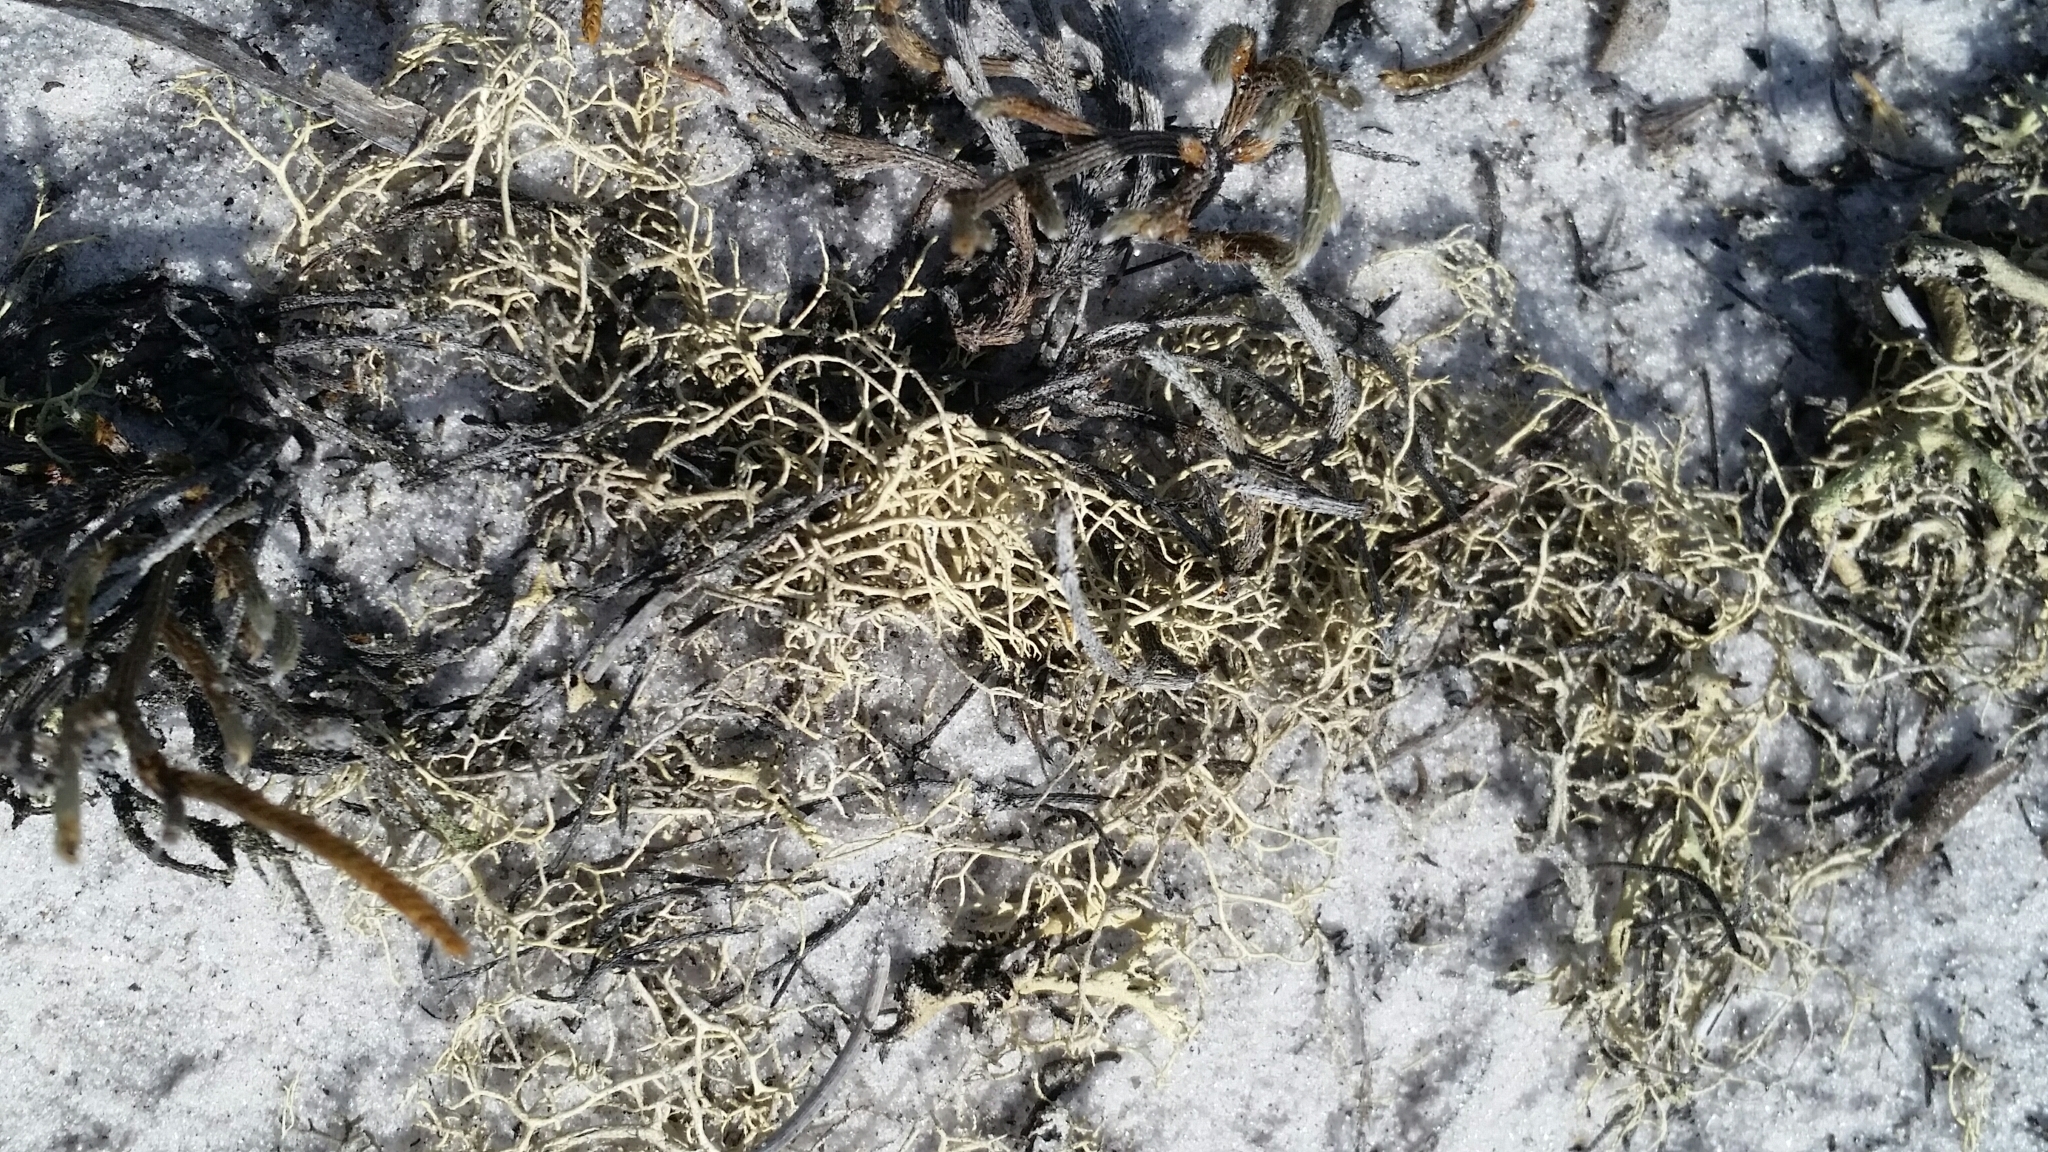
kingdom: Fungi
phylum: Ascomycota
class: Lecanoromycetes
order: Lecanorales
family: Cladoniaceae
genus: Cladonia
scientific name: Cladonia subsetacea
